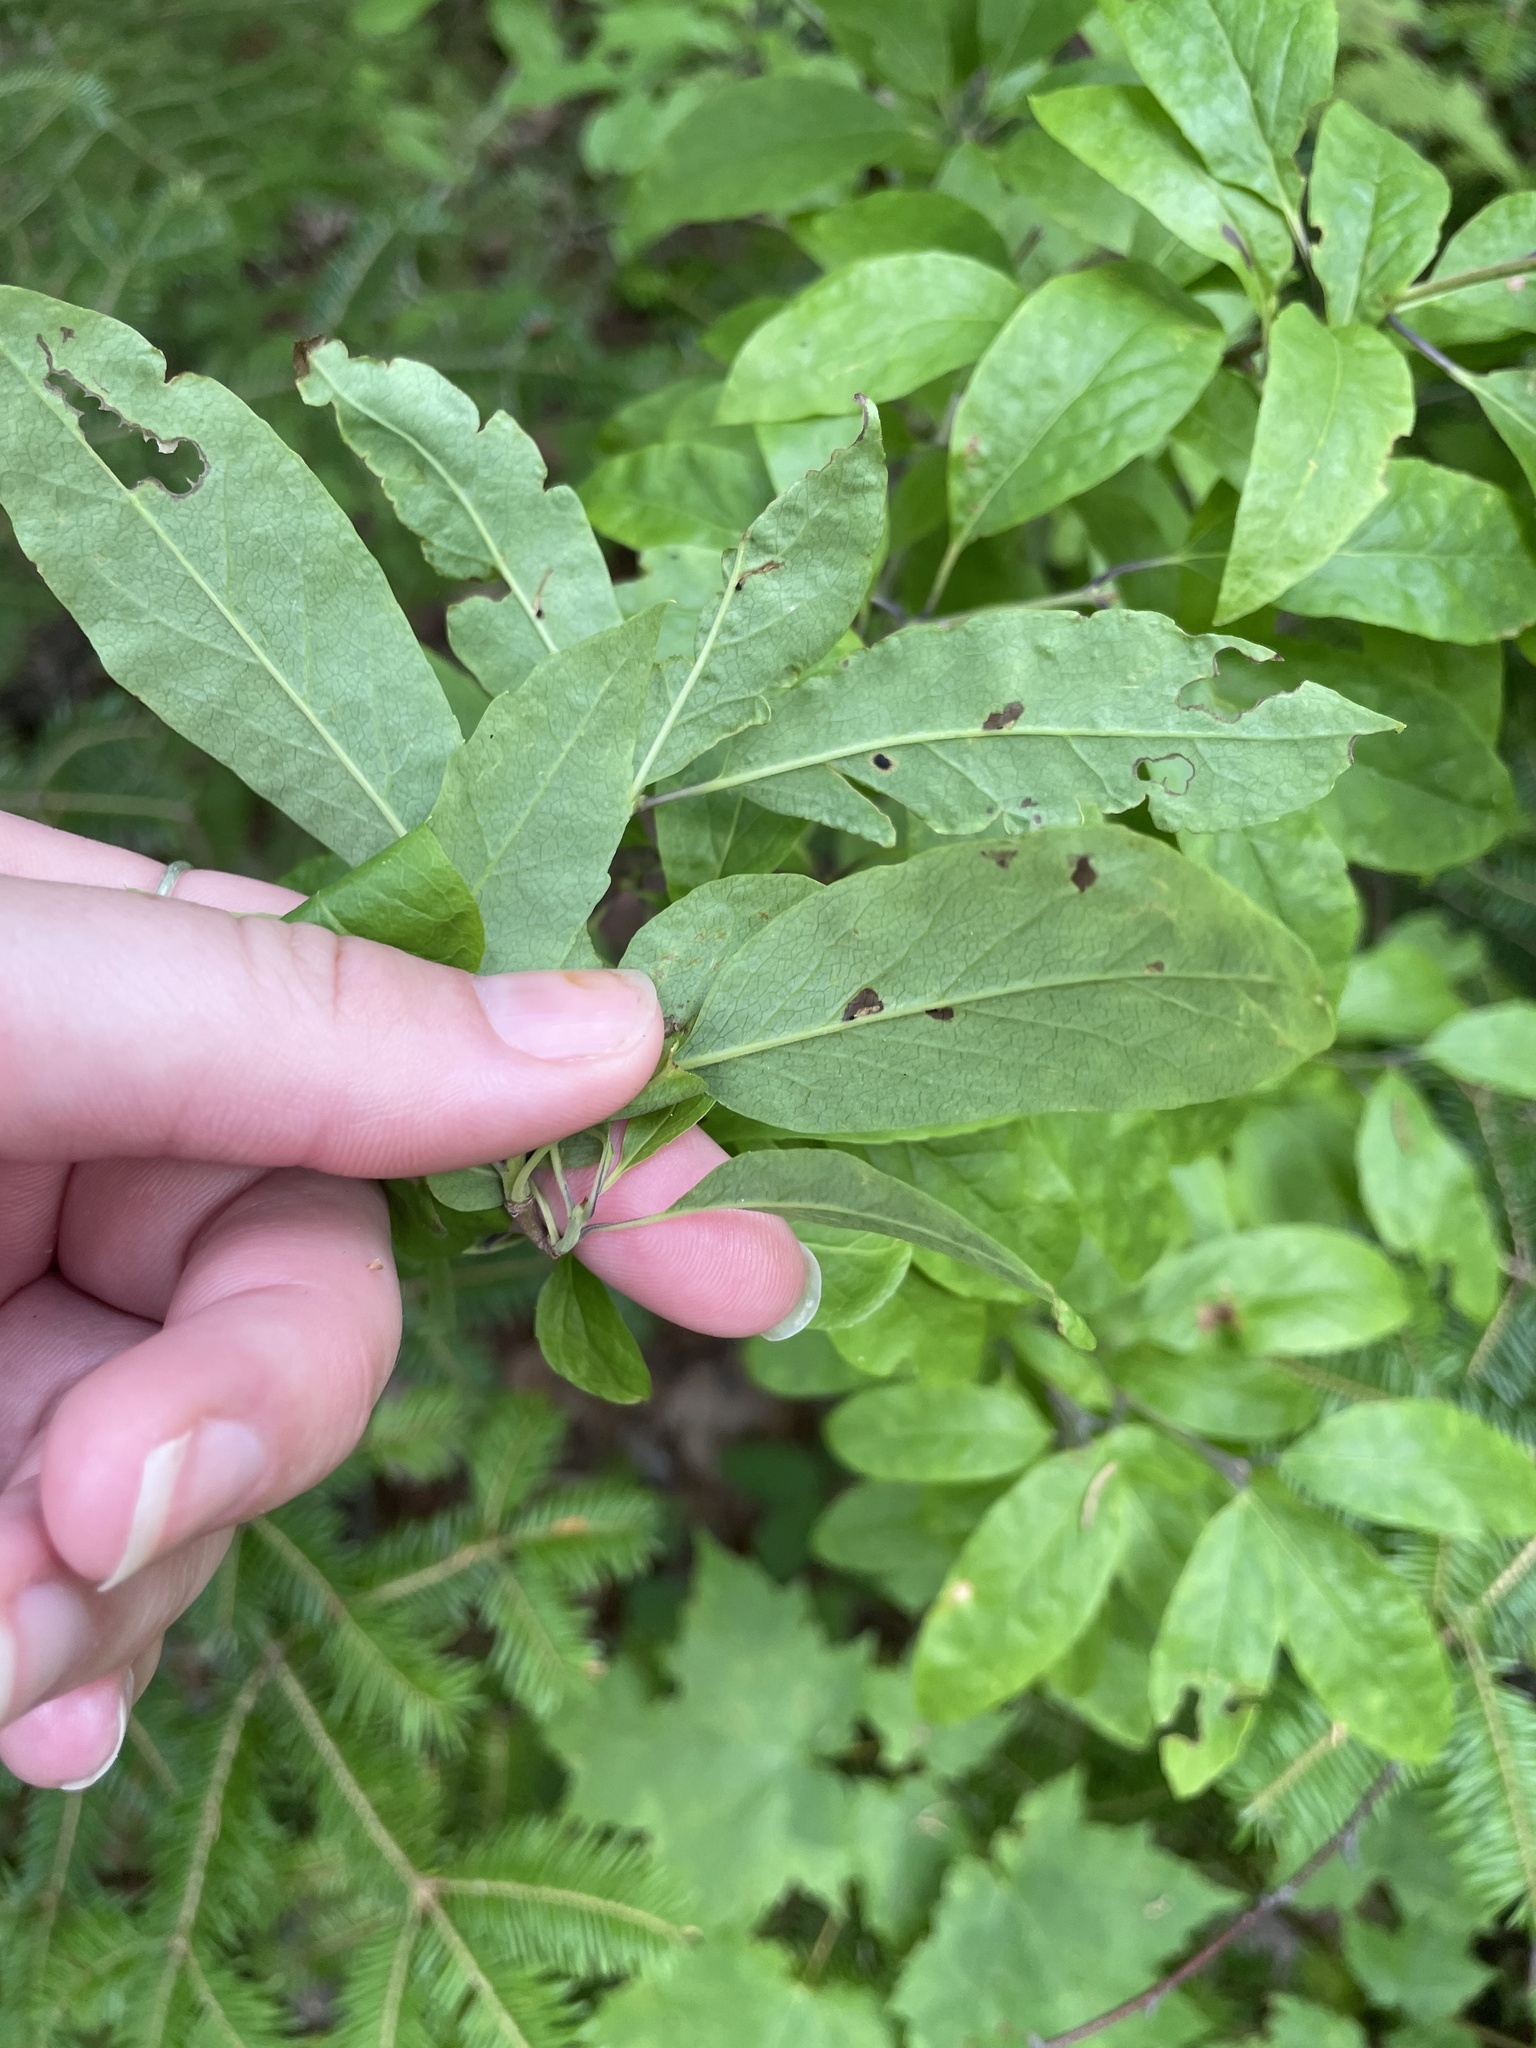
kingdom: Plantae
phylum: Tracheophyta
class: Magnoliopsida
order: Aquifoliales
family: Aquifoliaceae
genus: Ilex
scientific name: Ilex mucronata
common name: Catberry
